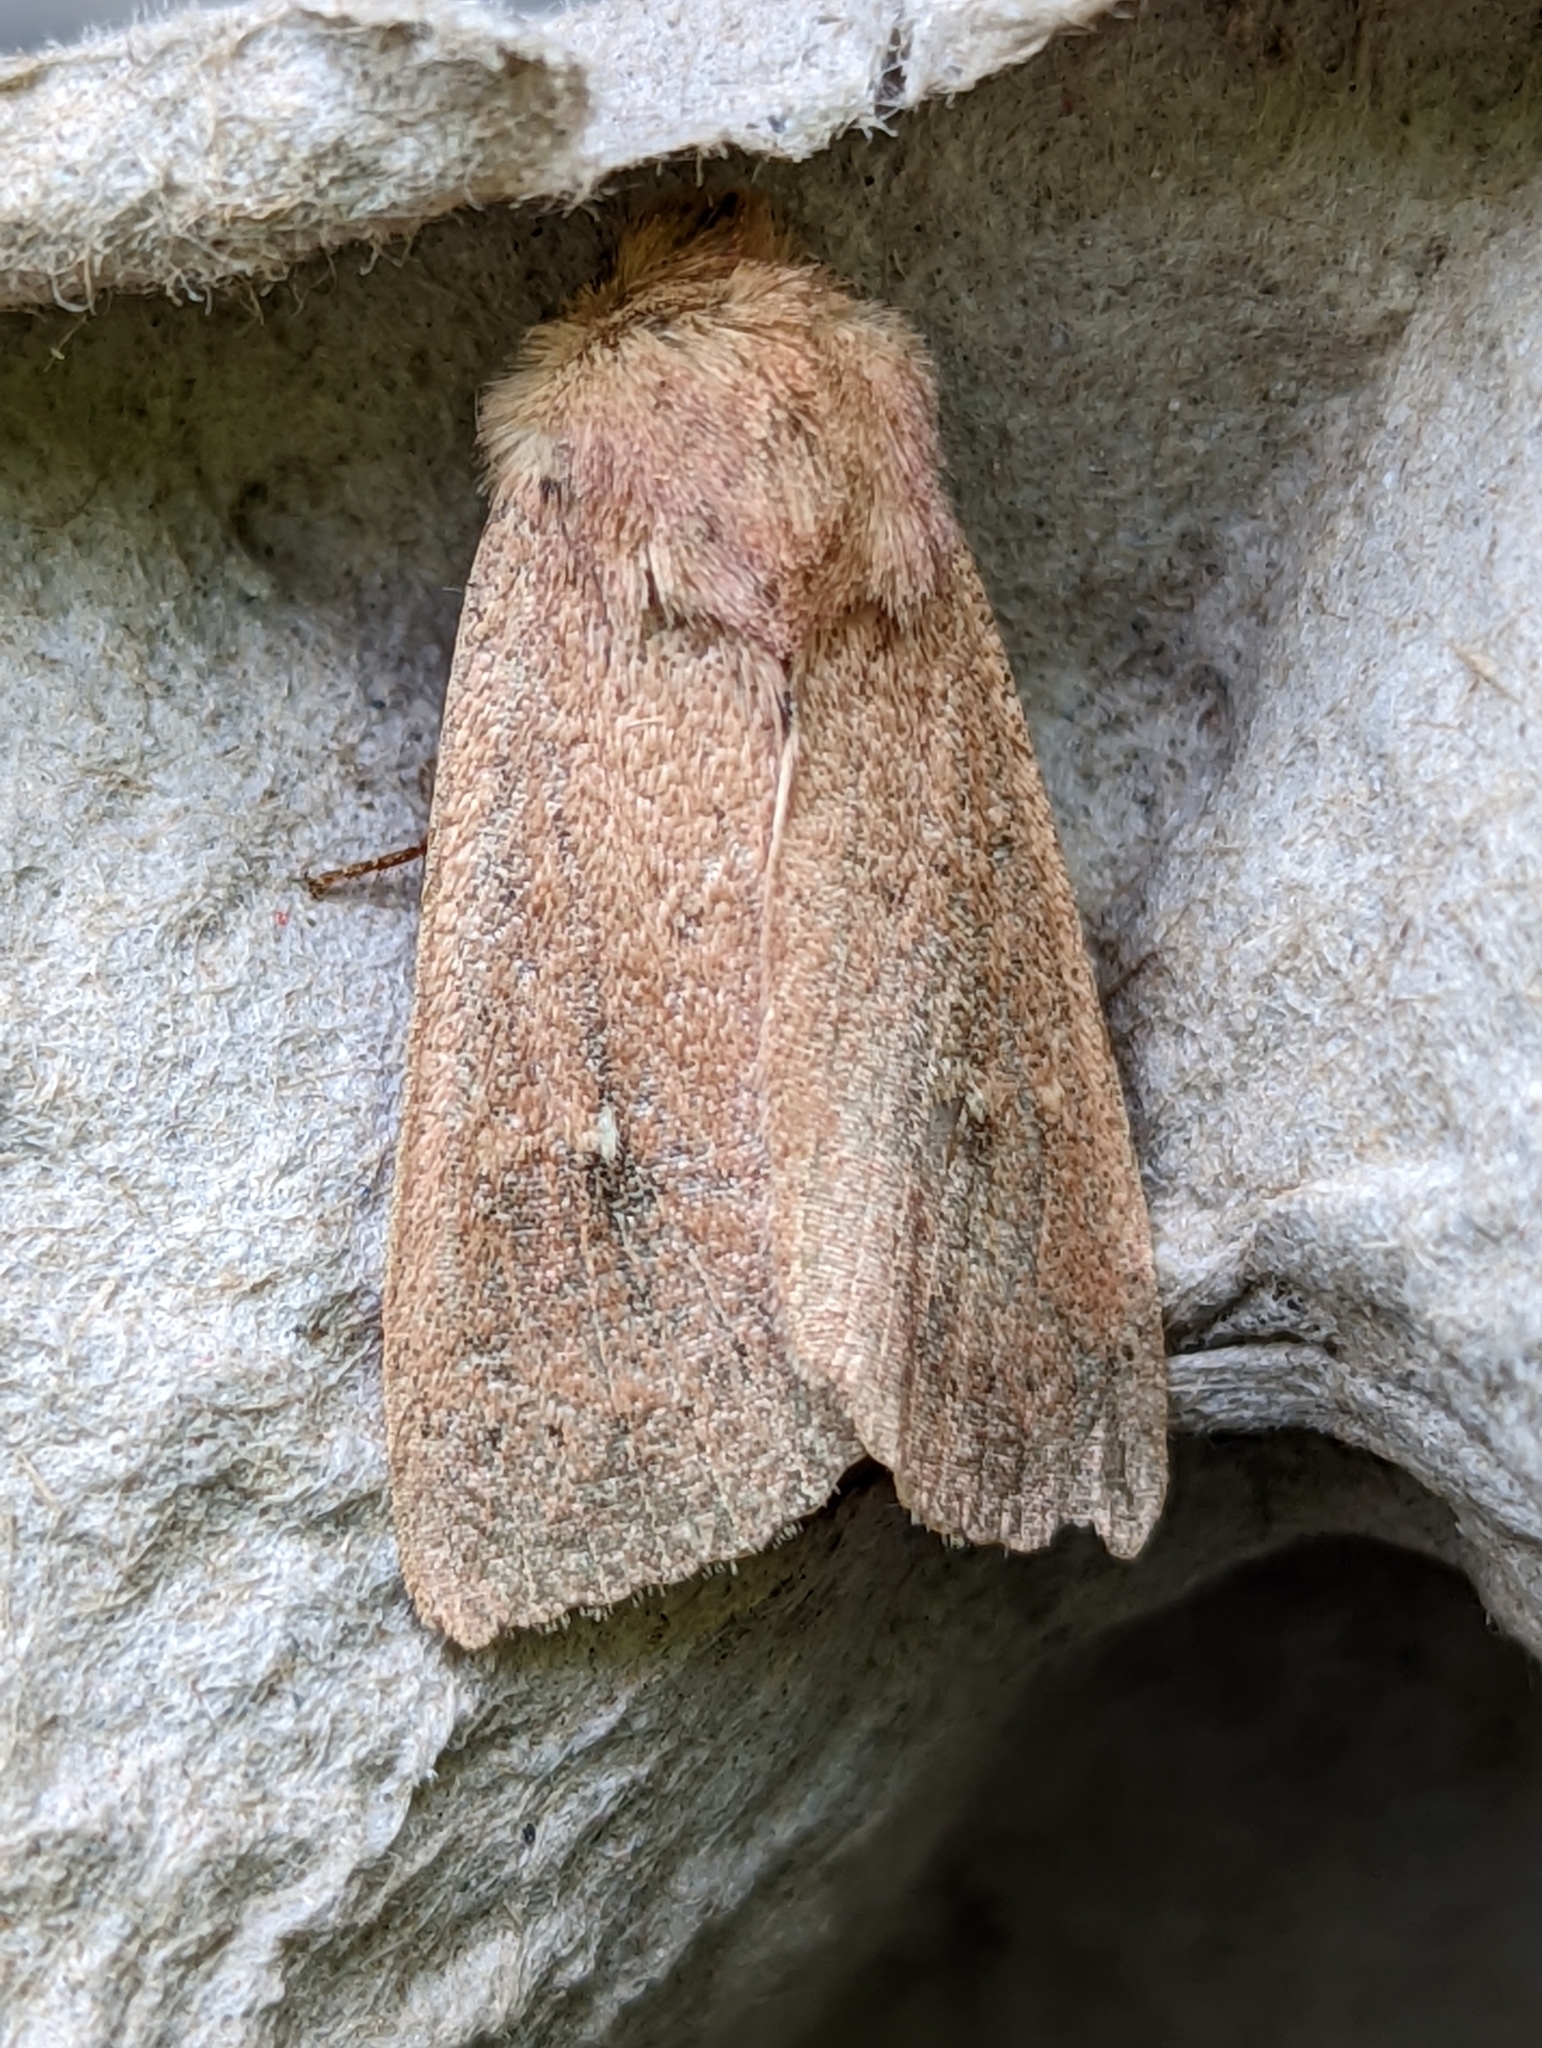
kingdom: Animalia
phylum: Arthropoda
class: Insecta
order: Lepidoptera
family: Noctuidae
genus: Mythimna
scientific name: Mythimna ferrago
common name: Clay
